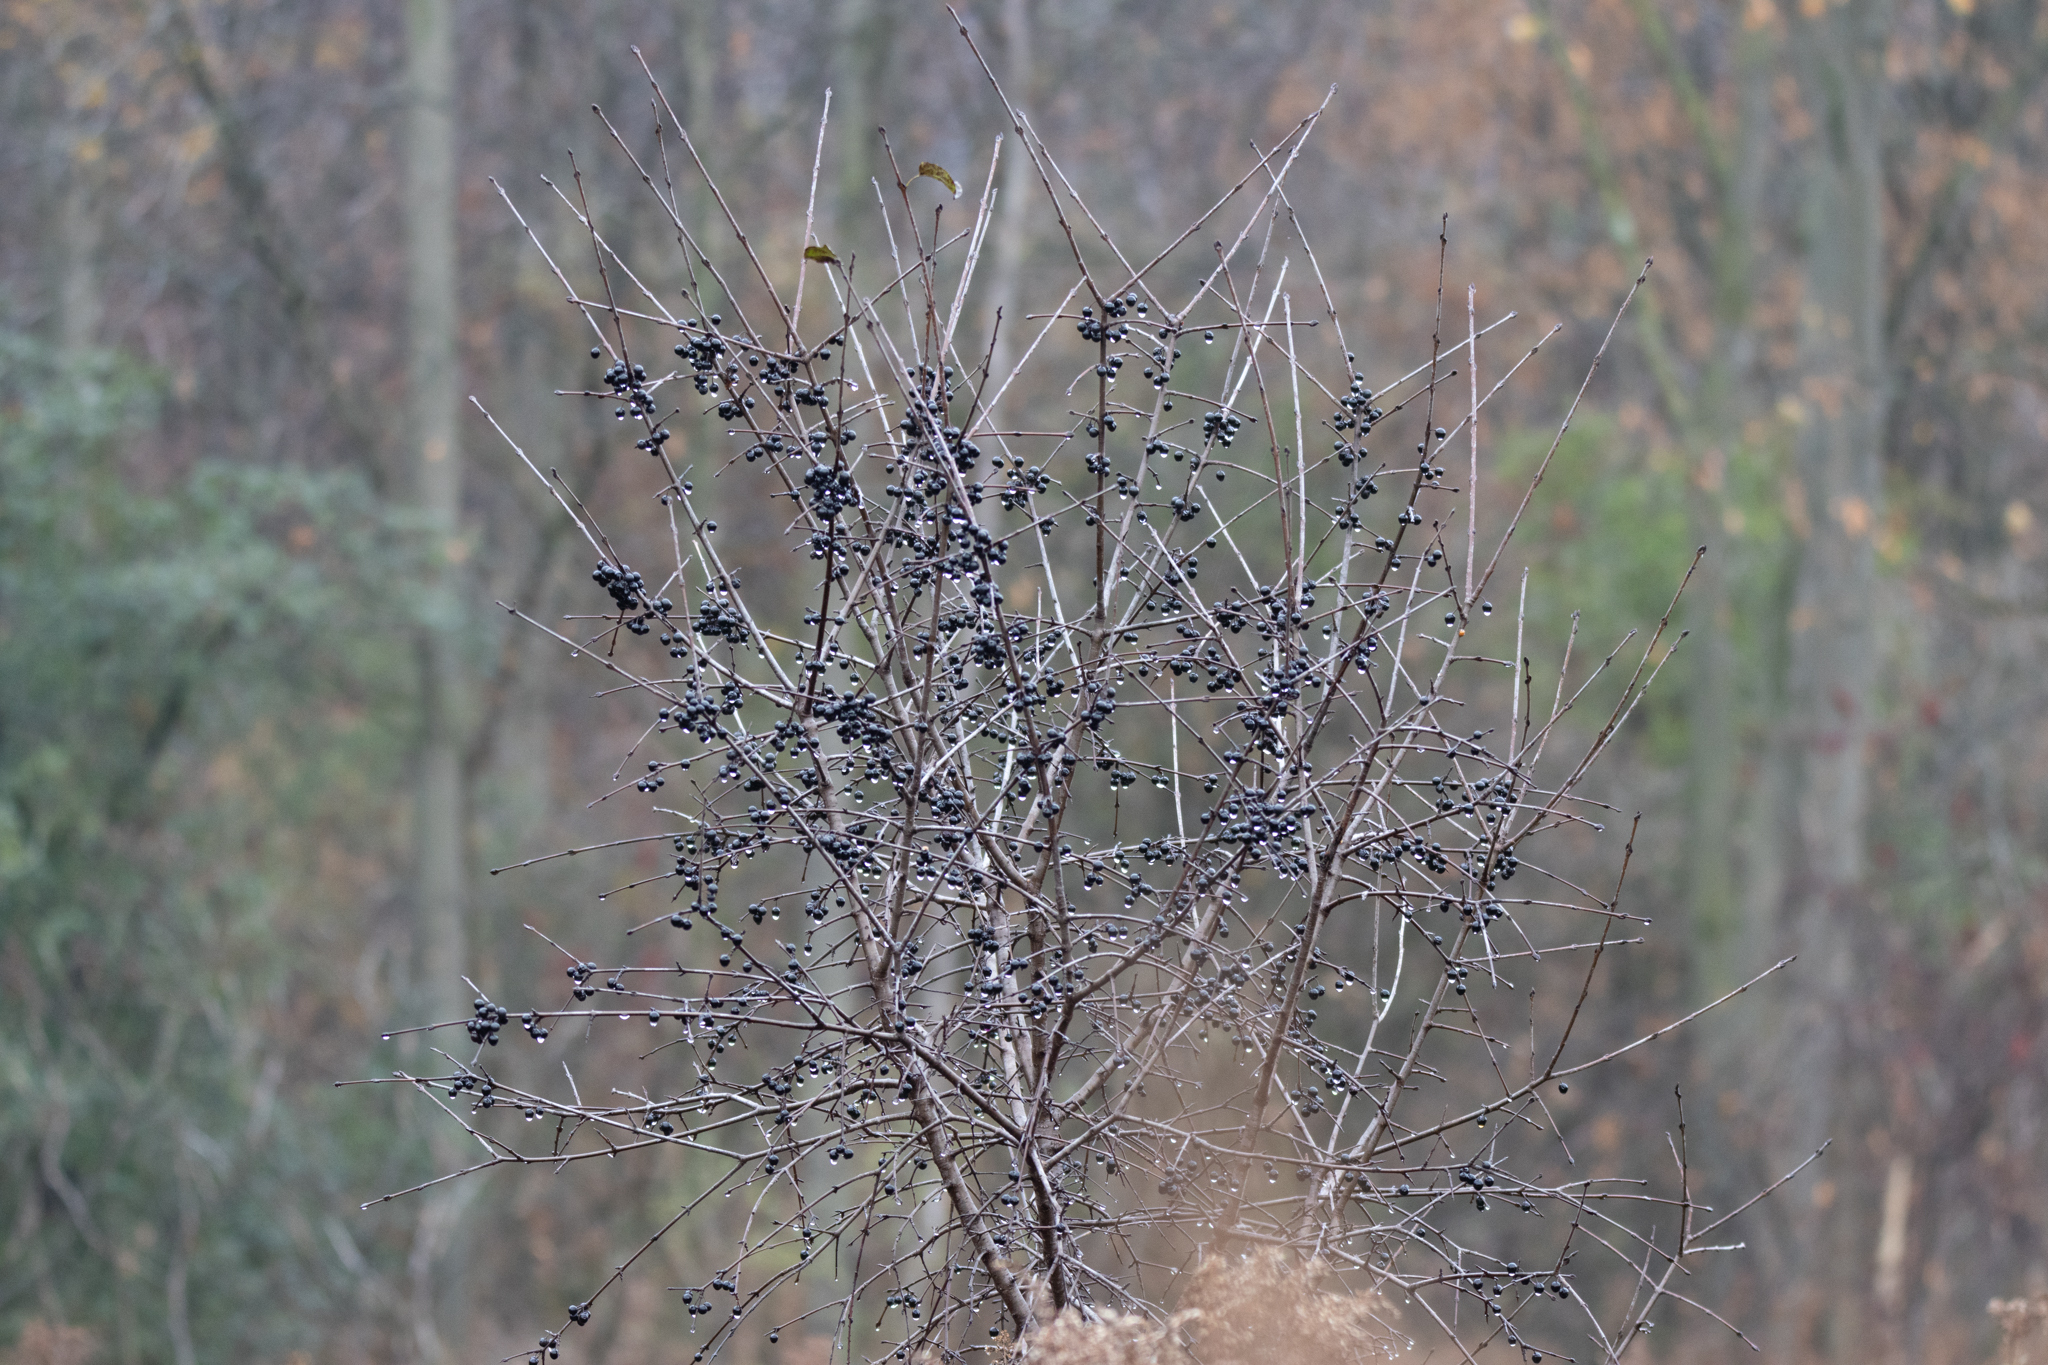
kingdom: Plantae
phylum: Tracheophyta
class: Magnoliopsida
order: Rosales
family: Rhamnaceae
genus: Rhamnus
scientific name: Rhamnus cathartica
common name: Common buckthorn
